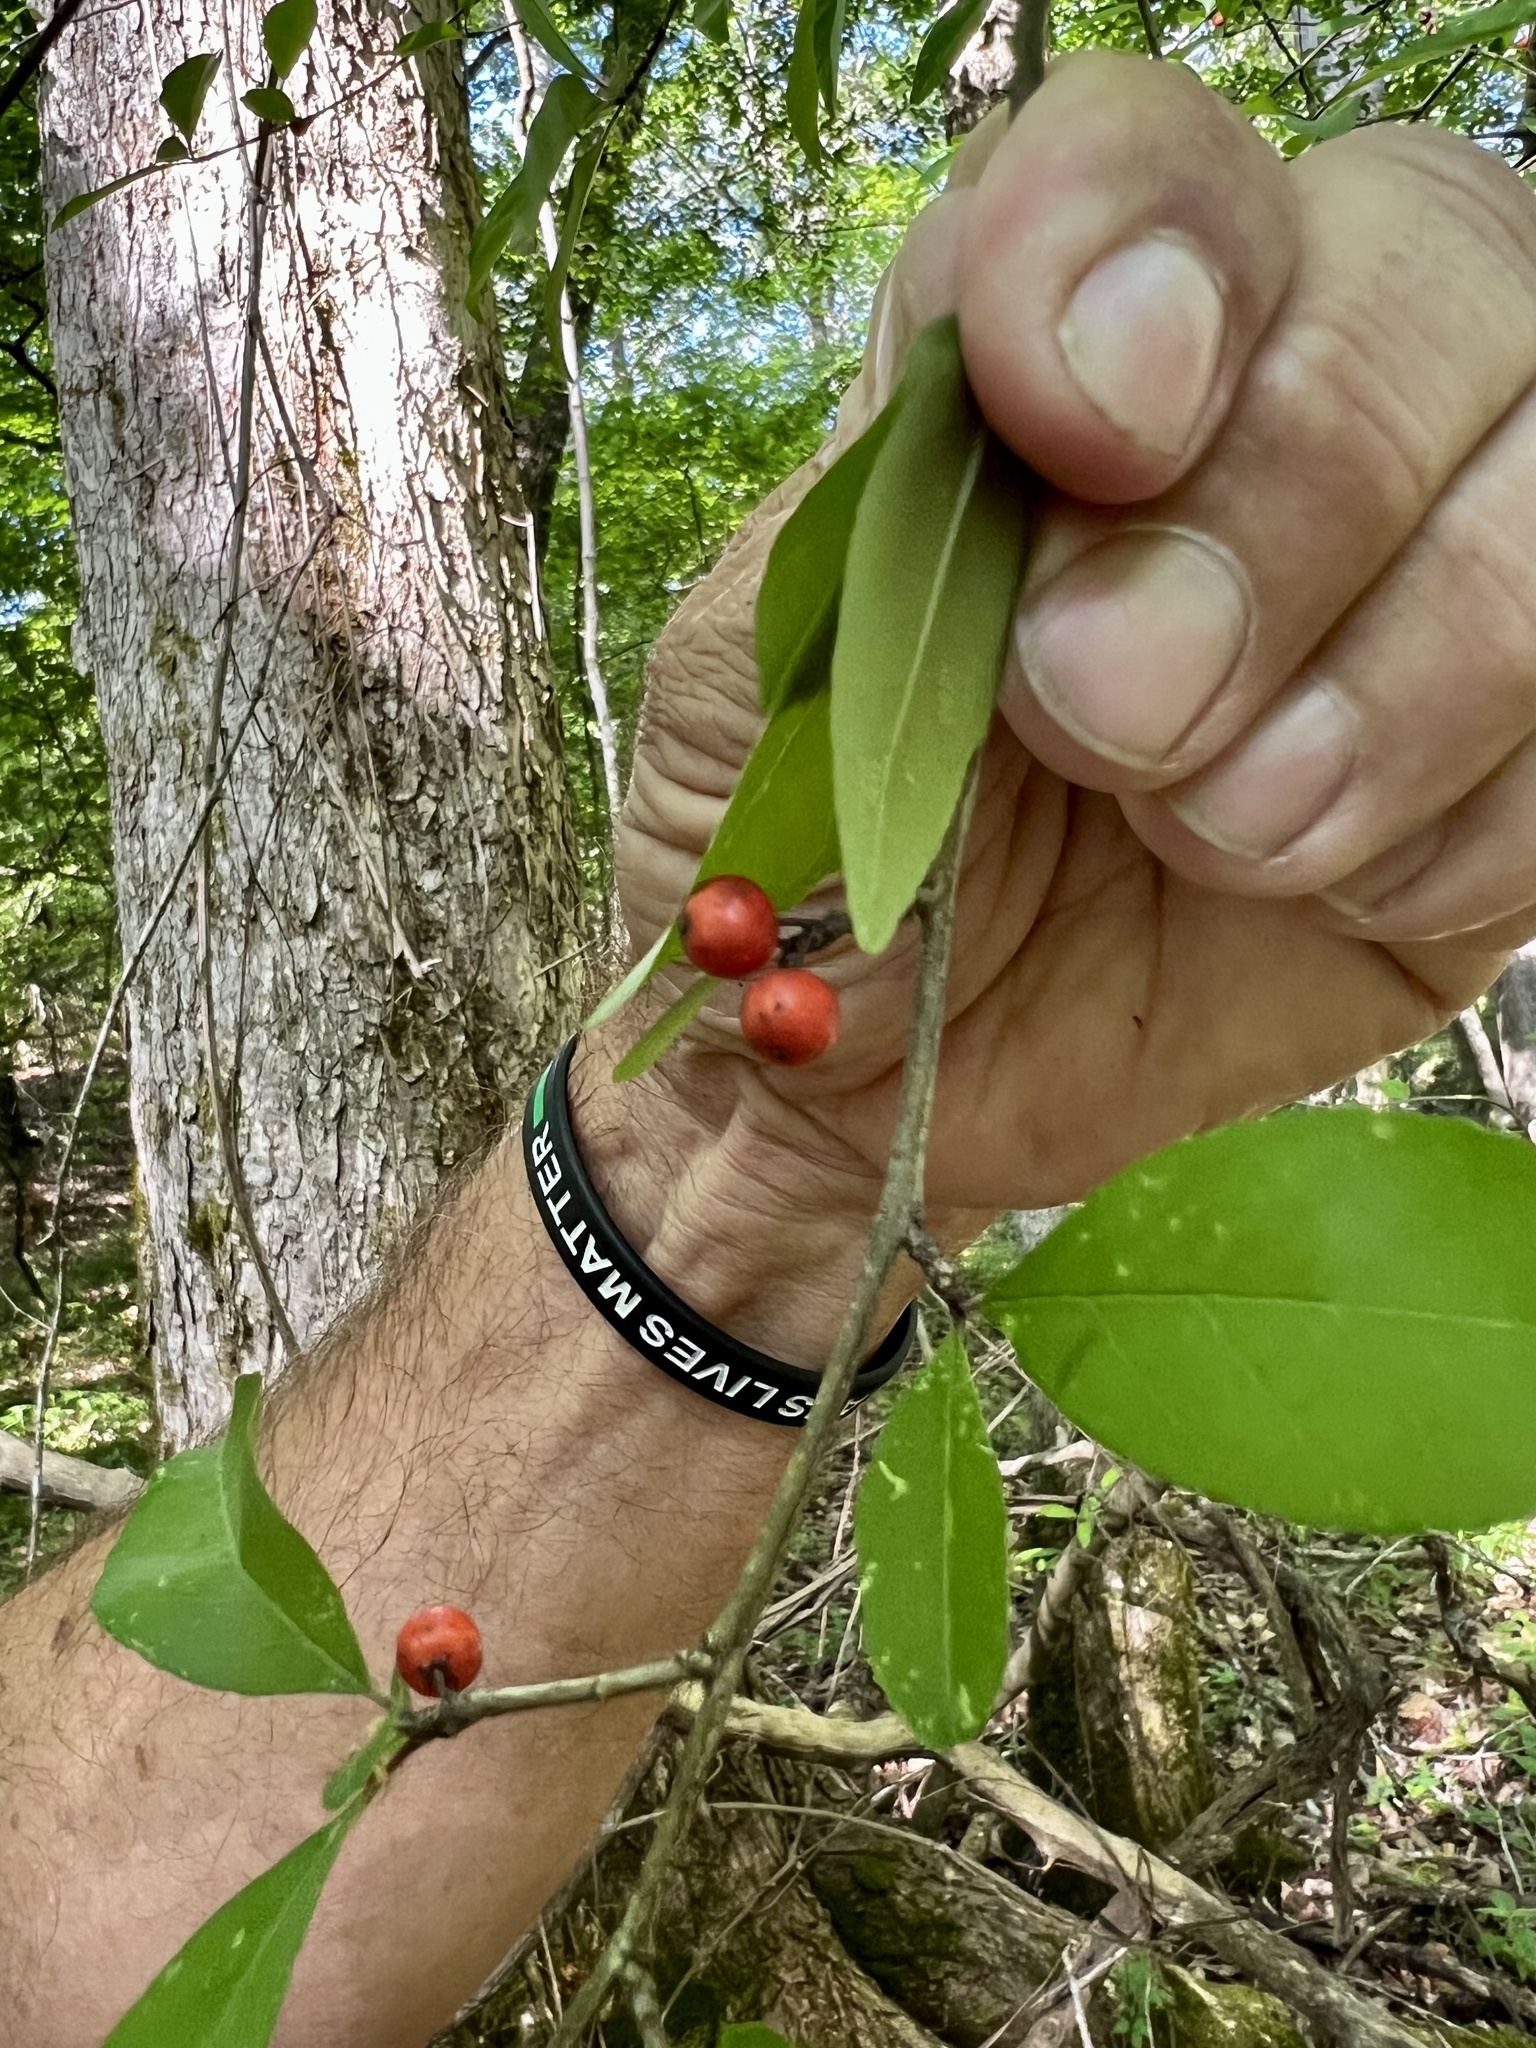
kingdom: Plantae
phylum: Tracheophyta
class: Magnoliopsida
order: Aquifoliales
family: Aquifoliaceae
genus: Ilex
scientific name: Ilex decidua
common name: Possum-haw
